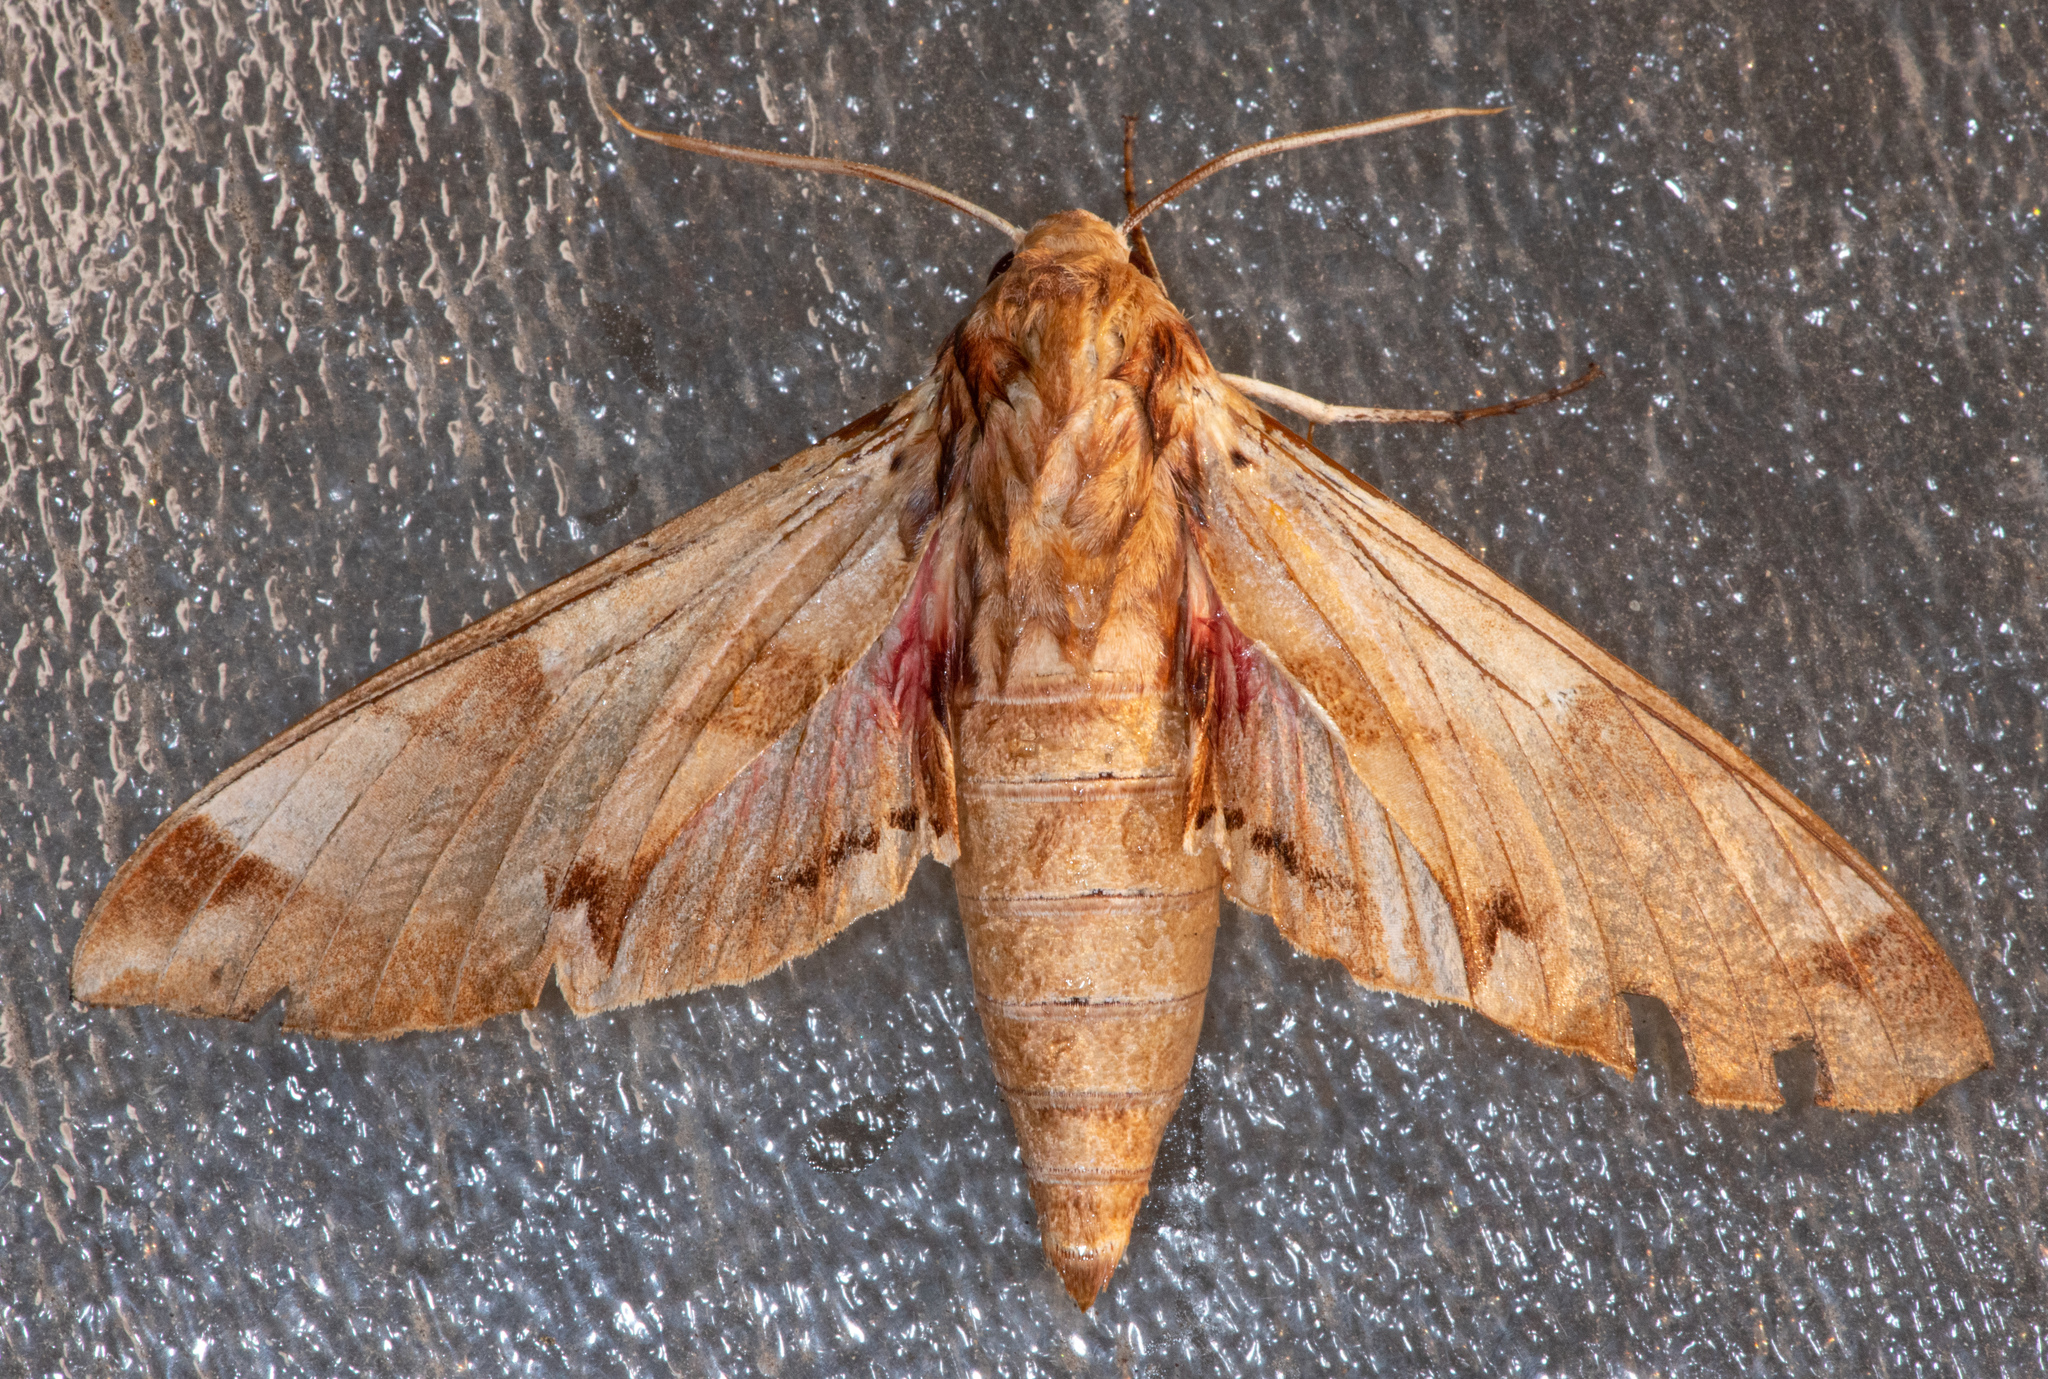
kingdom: Animalia
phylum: Arthropoda
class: Insecta
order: Lepidoptera
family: Sphingidae
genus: Eumorpha
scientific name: Eumorpha achemon
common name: Achemon sphinx
